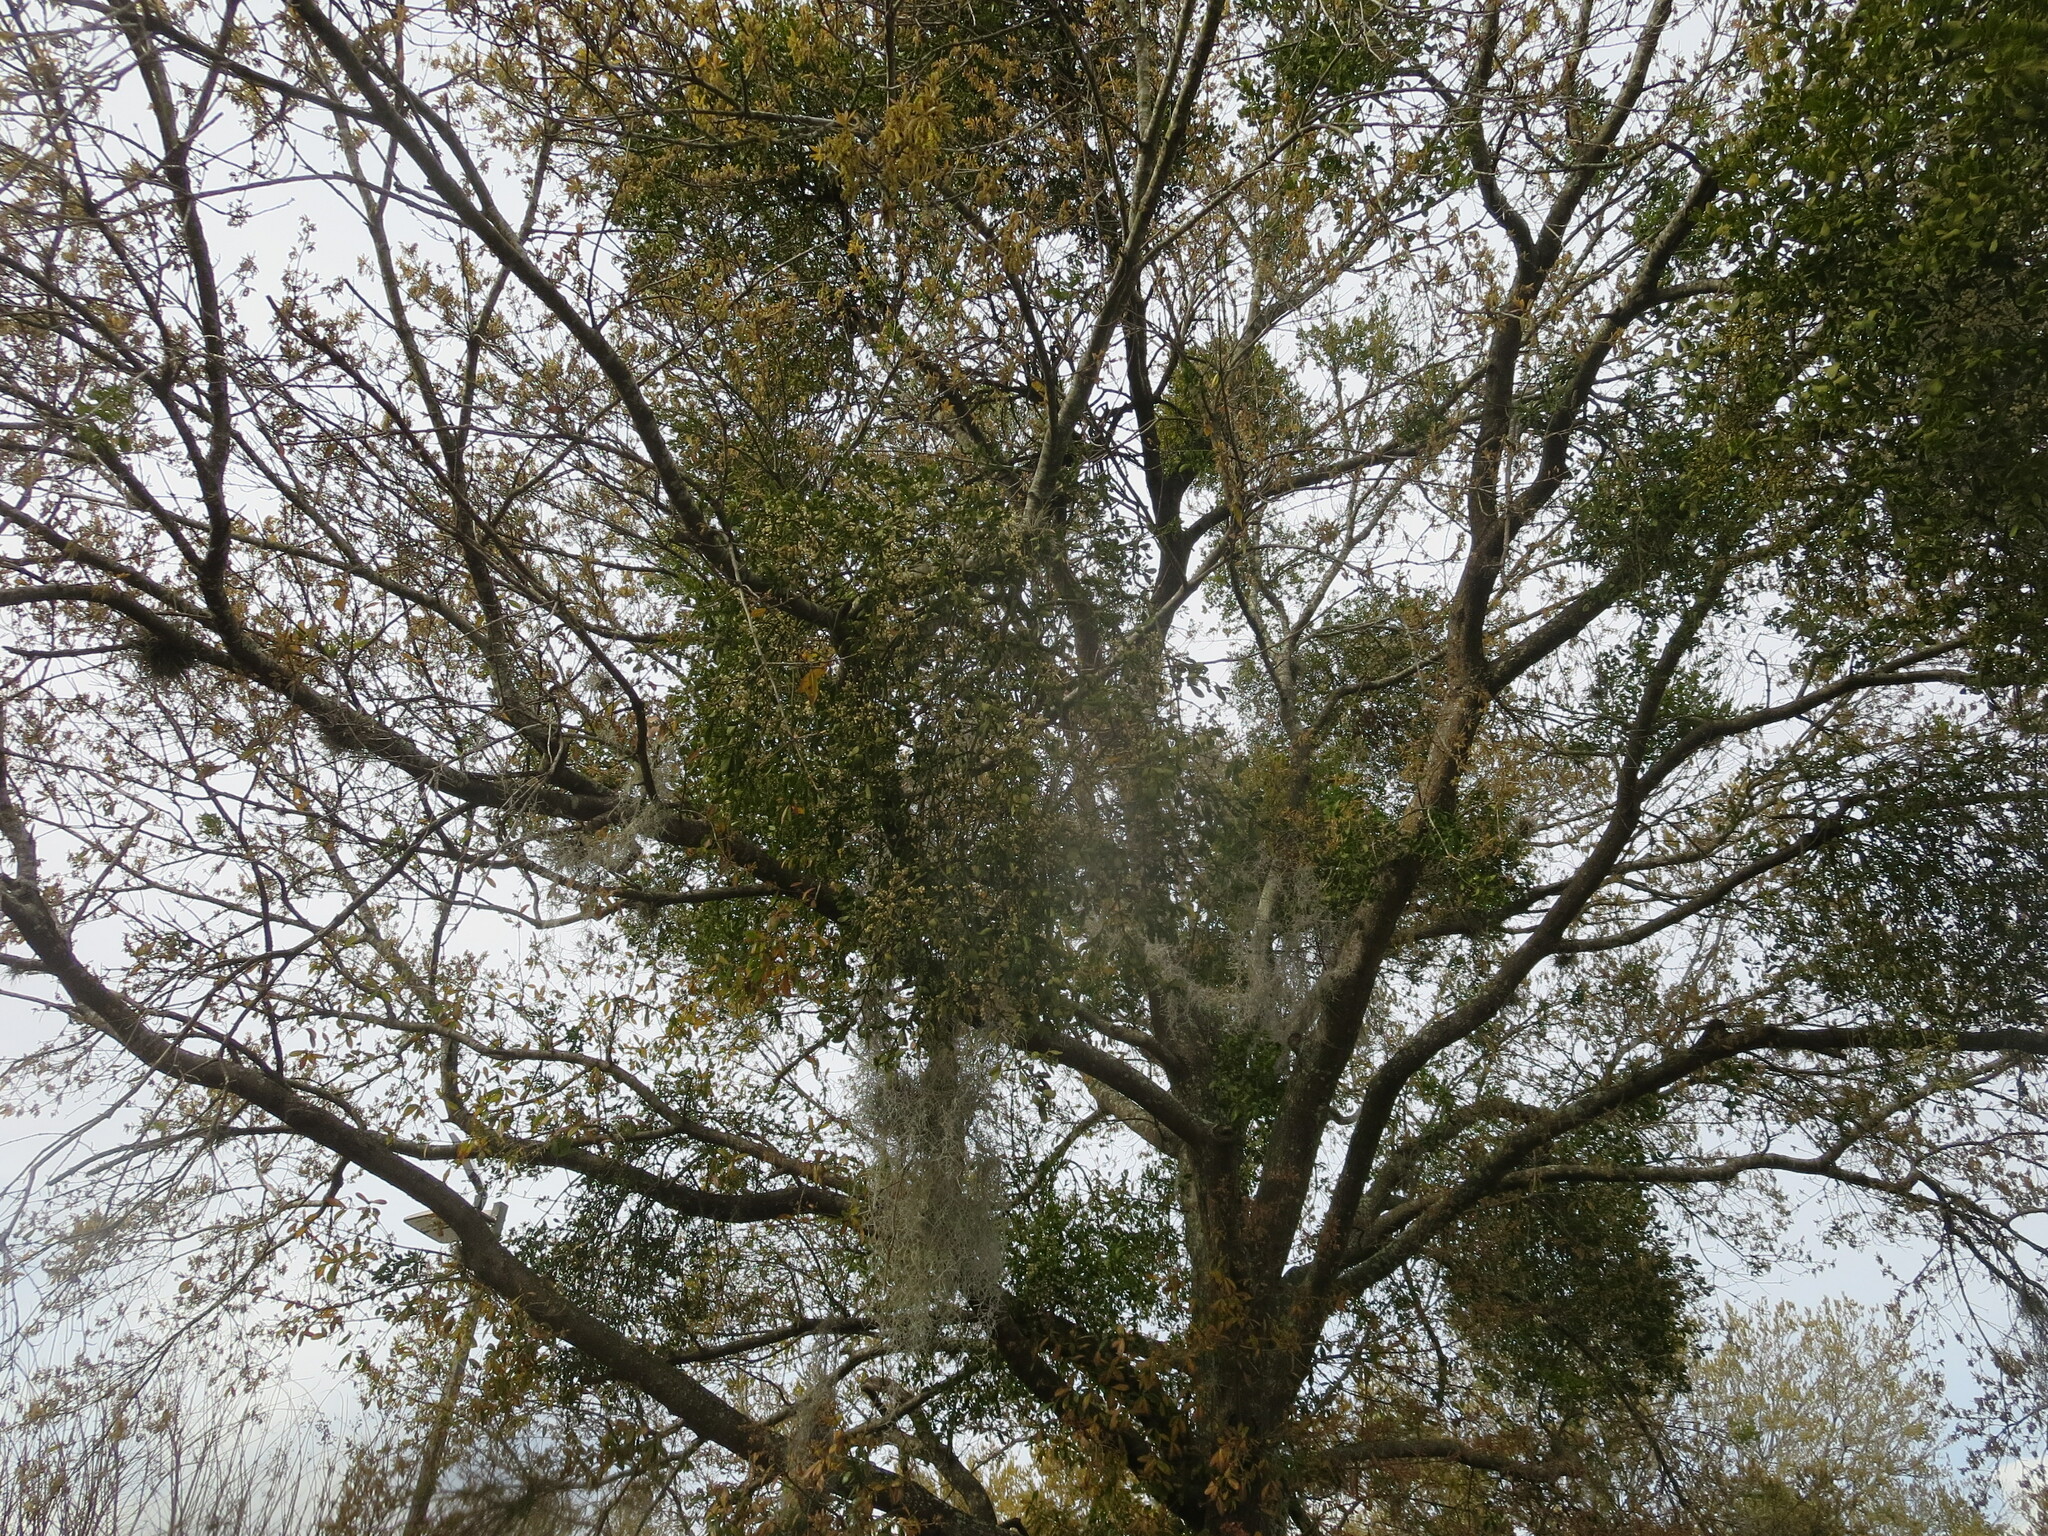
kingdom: Plantae
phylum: Tracheophyta
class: Magnoliopsida
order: Santalales
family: Viscaceae
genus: Phoradendron
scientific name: Phoradendron leucarpum
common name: Pacific mistletoe
